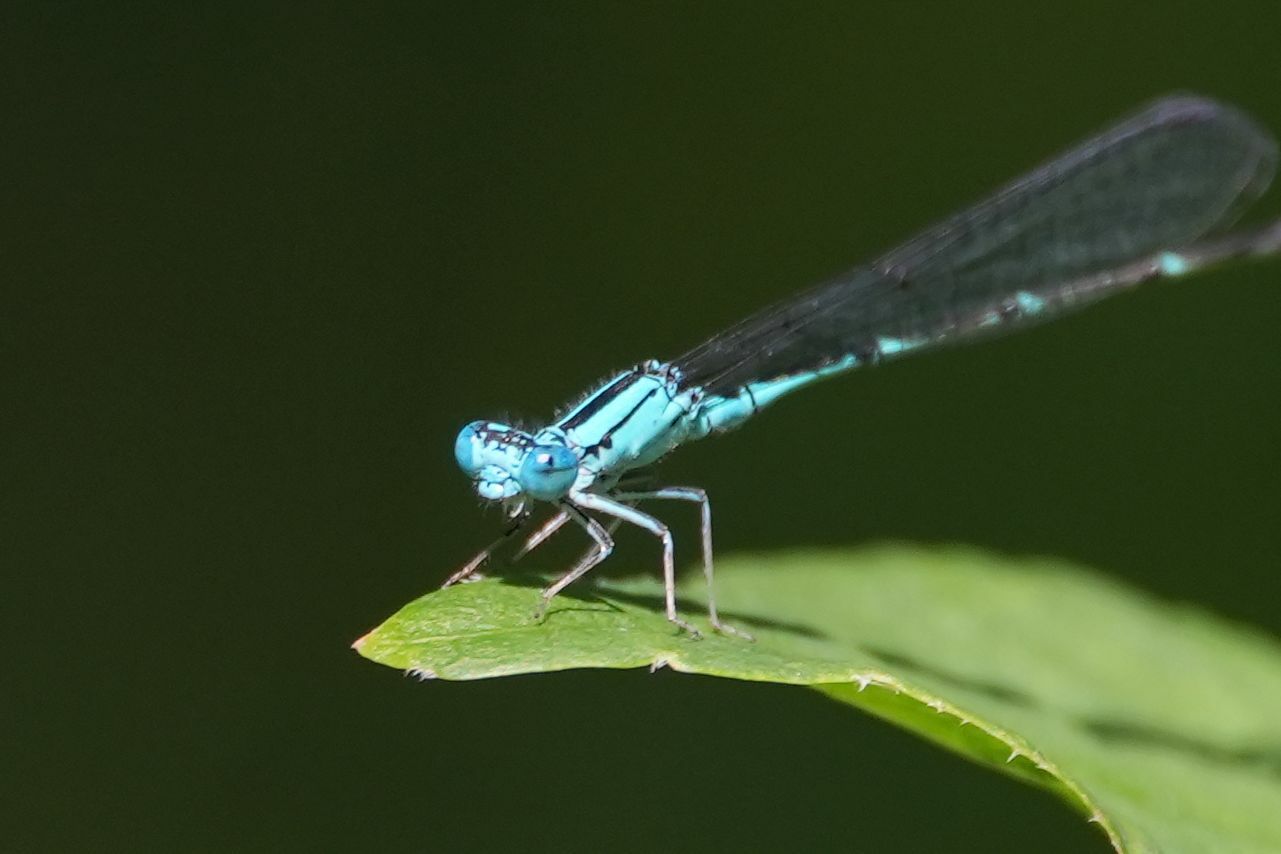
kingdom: Animalia
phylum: Arthropoda
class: Insecta
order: Odonata
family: Coenagrionidae
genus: Enallagma
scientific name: Enallagma traviatum
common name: Slender bluet
